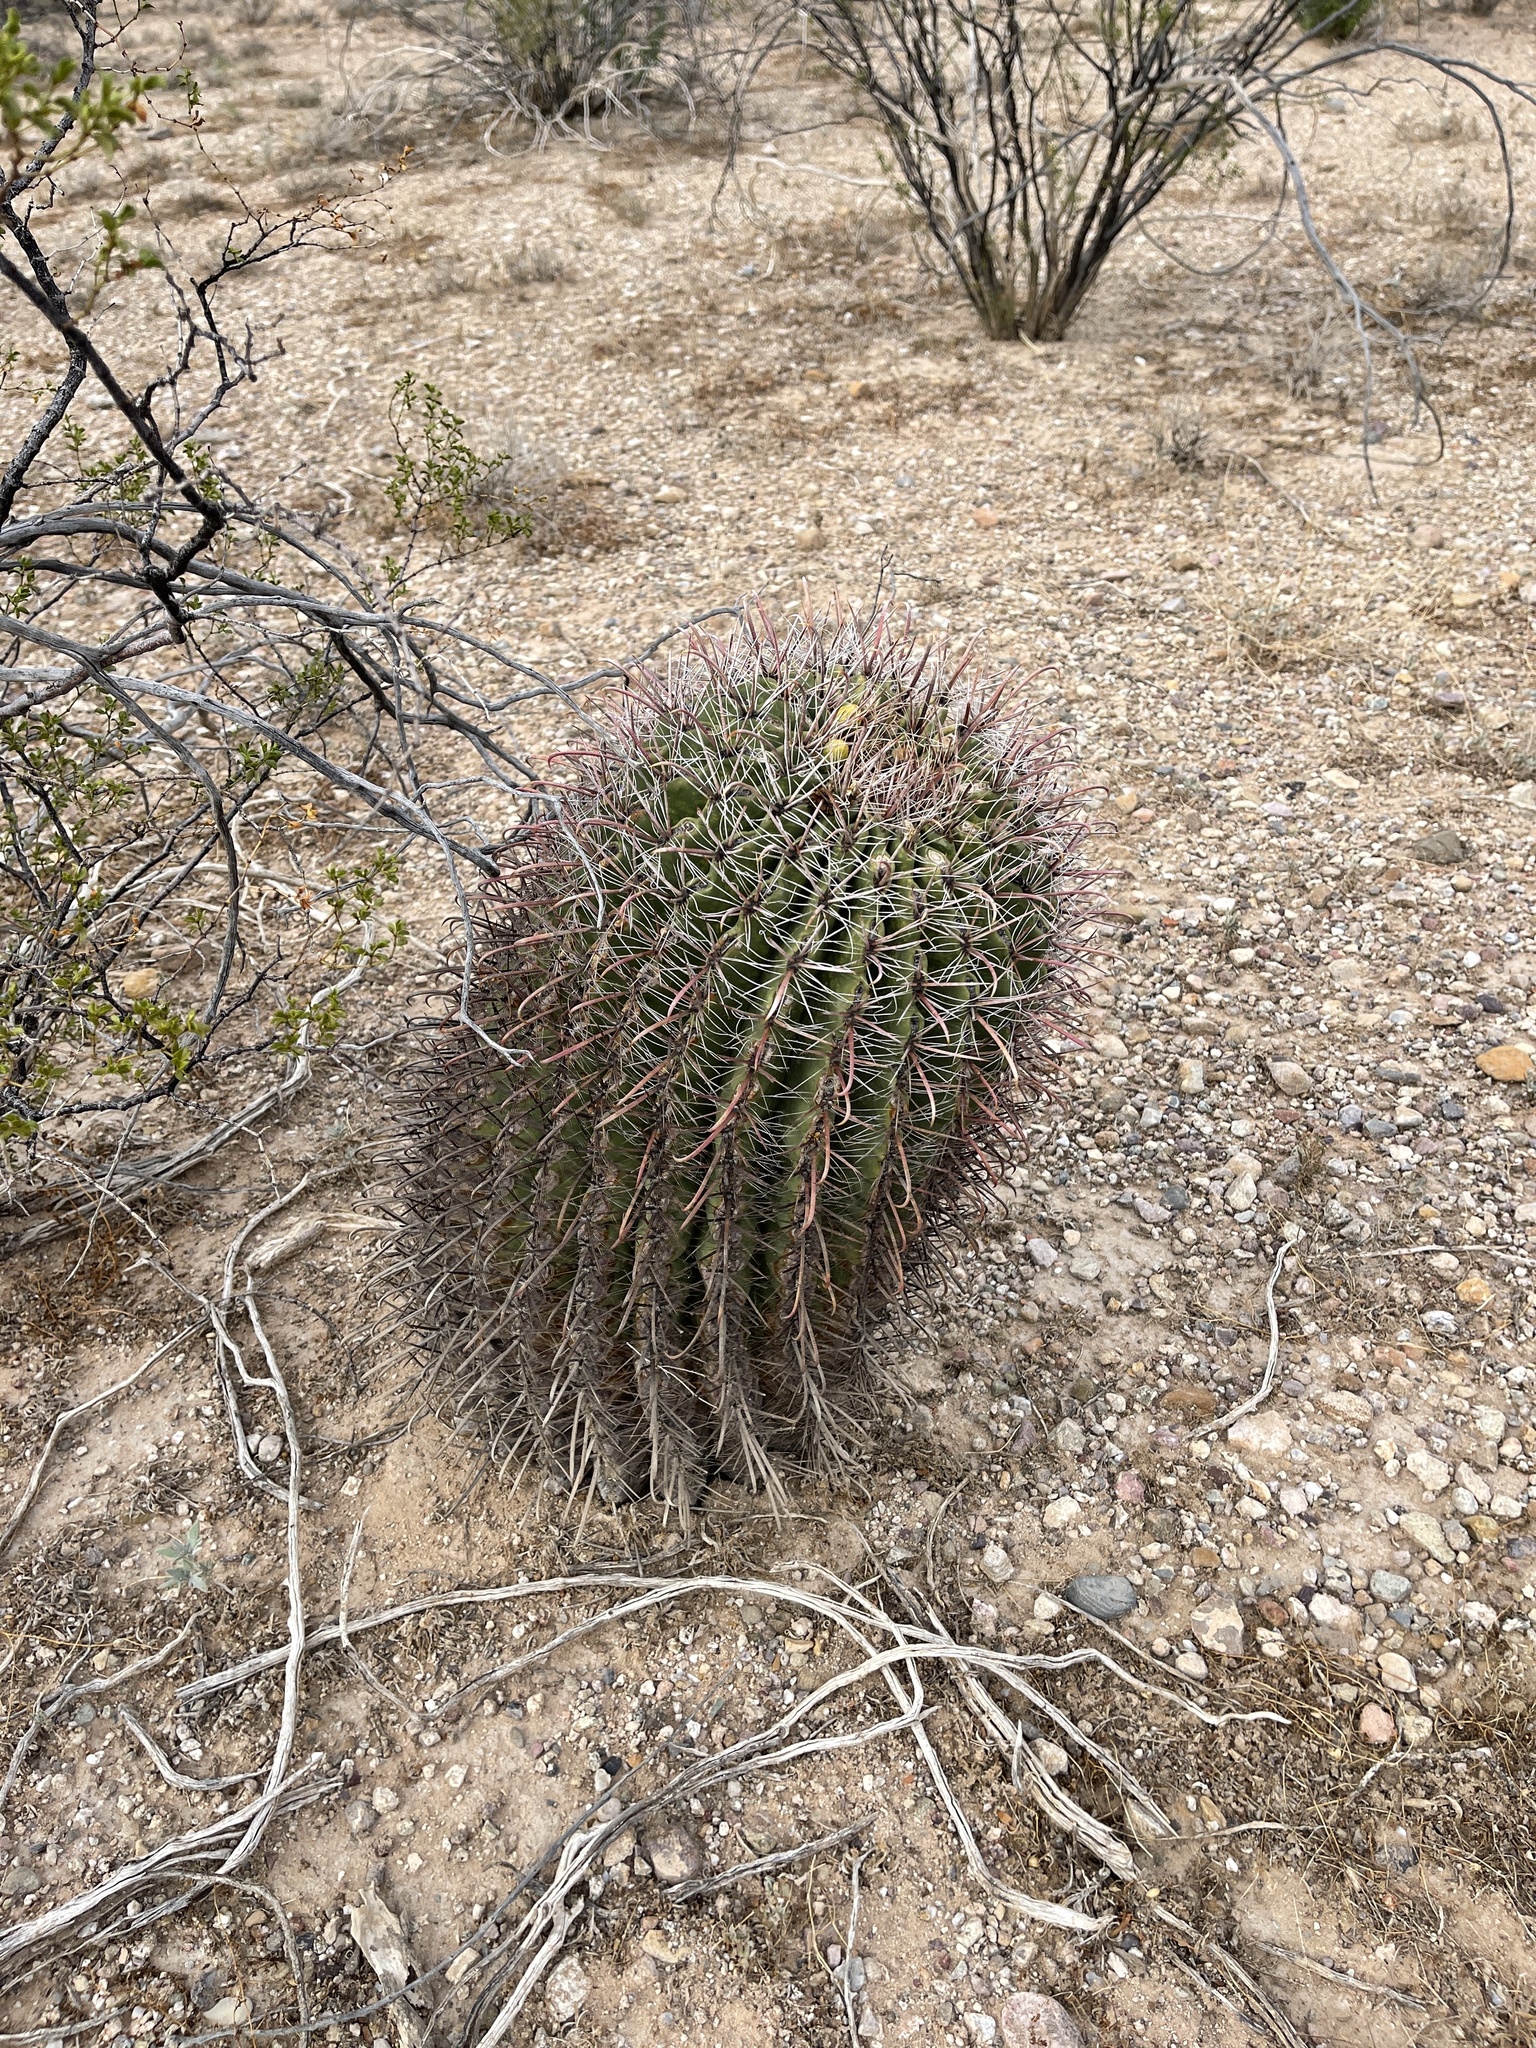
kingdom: Plantae
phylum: Tracheophyta
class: Magnoliopsida
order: Caryophyllales
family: Cactaceae
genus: Ferocactus
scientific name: Ferocactus wislizeni
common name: Candy barrel cactus
